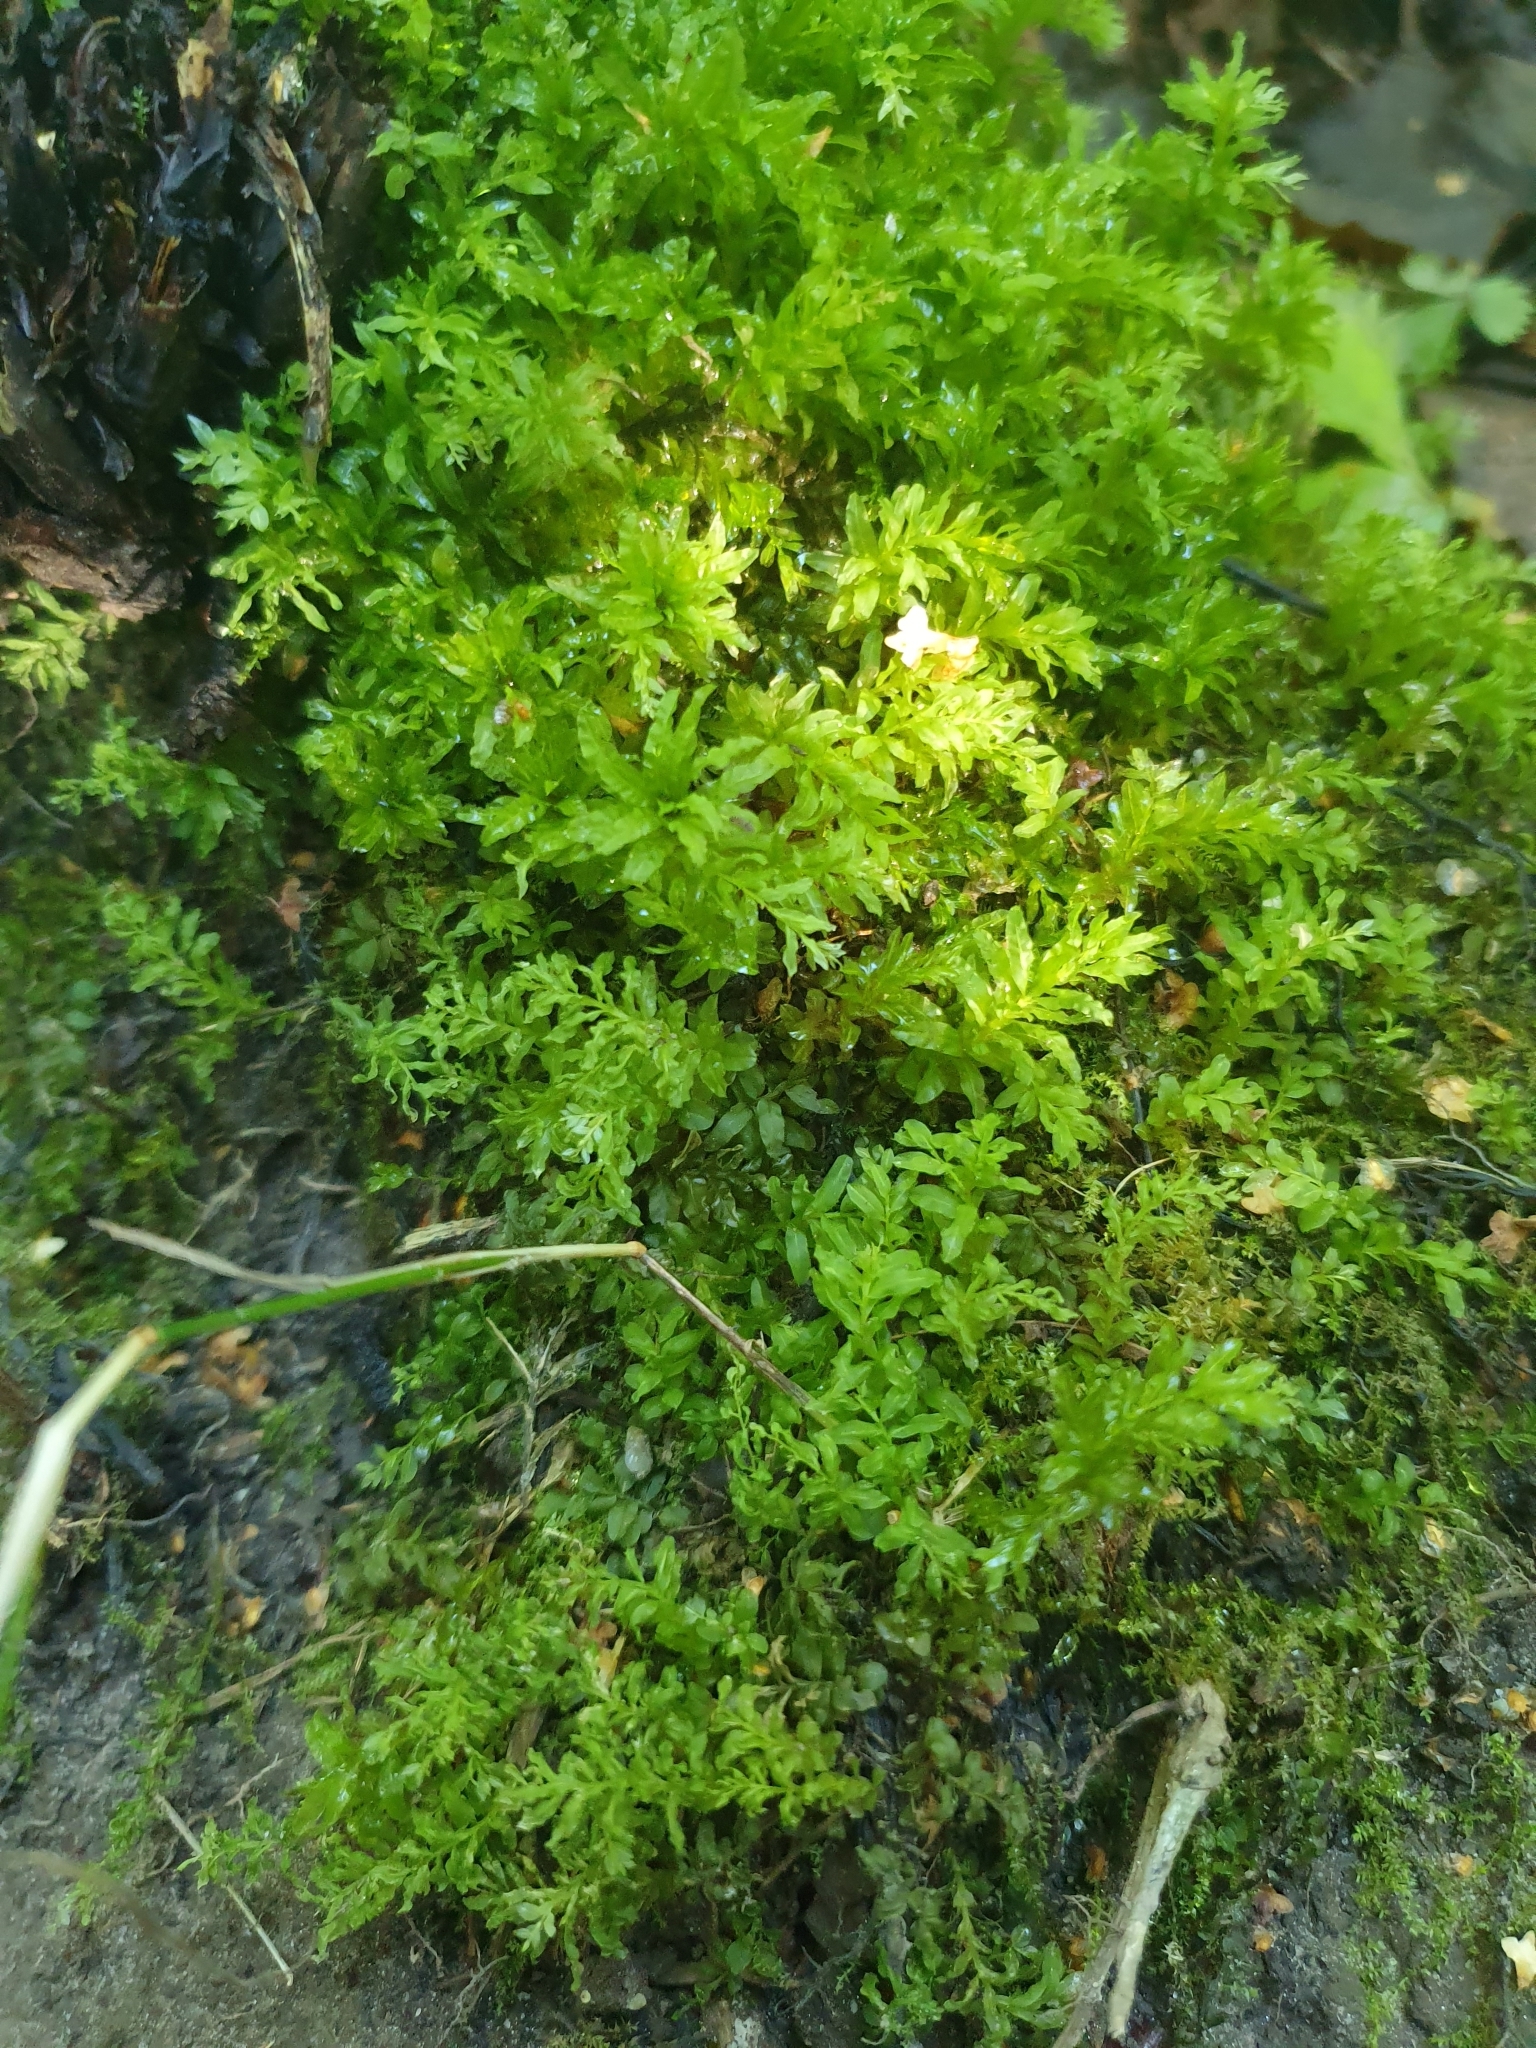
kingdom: Plantae
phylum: Bryophyta
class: Bryopsida
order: Bryales
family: Mniaceae
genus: Plagiomnium
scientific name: Plagiomnium undulatum
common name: Hart's-tongue thyme-moss
